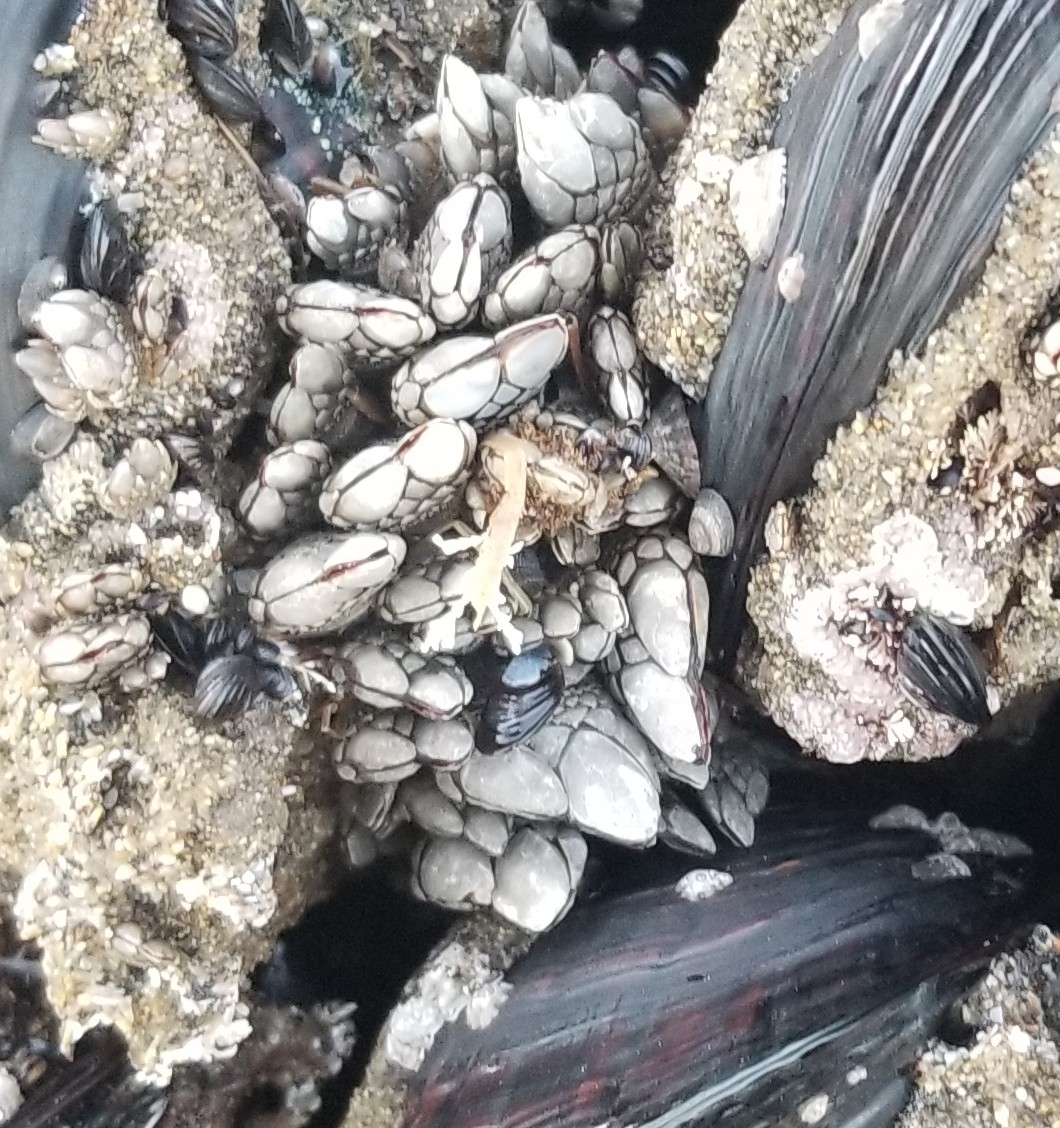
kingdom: Animalia
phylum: Arthropoda
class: Maxillopoda
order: Pedunculata
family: Pollicipedidae
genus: Pollicipes
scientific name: Pollicipes polymerus
